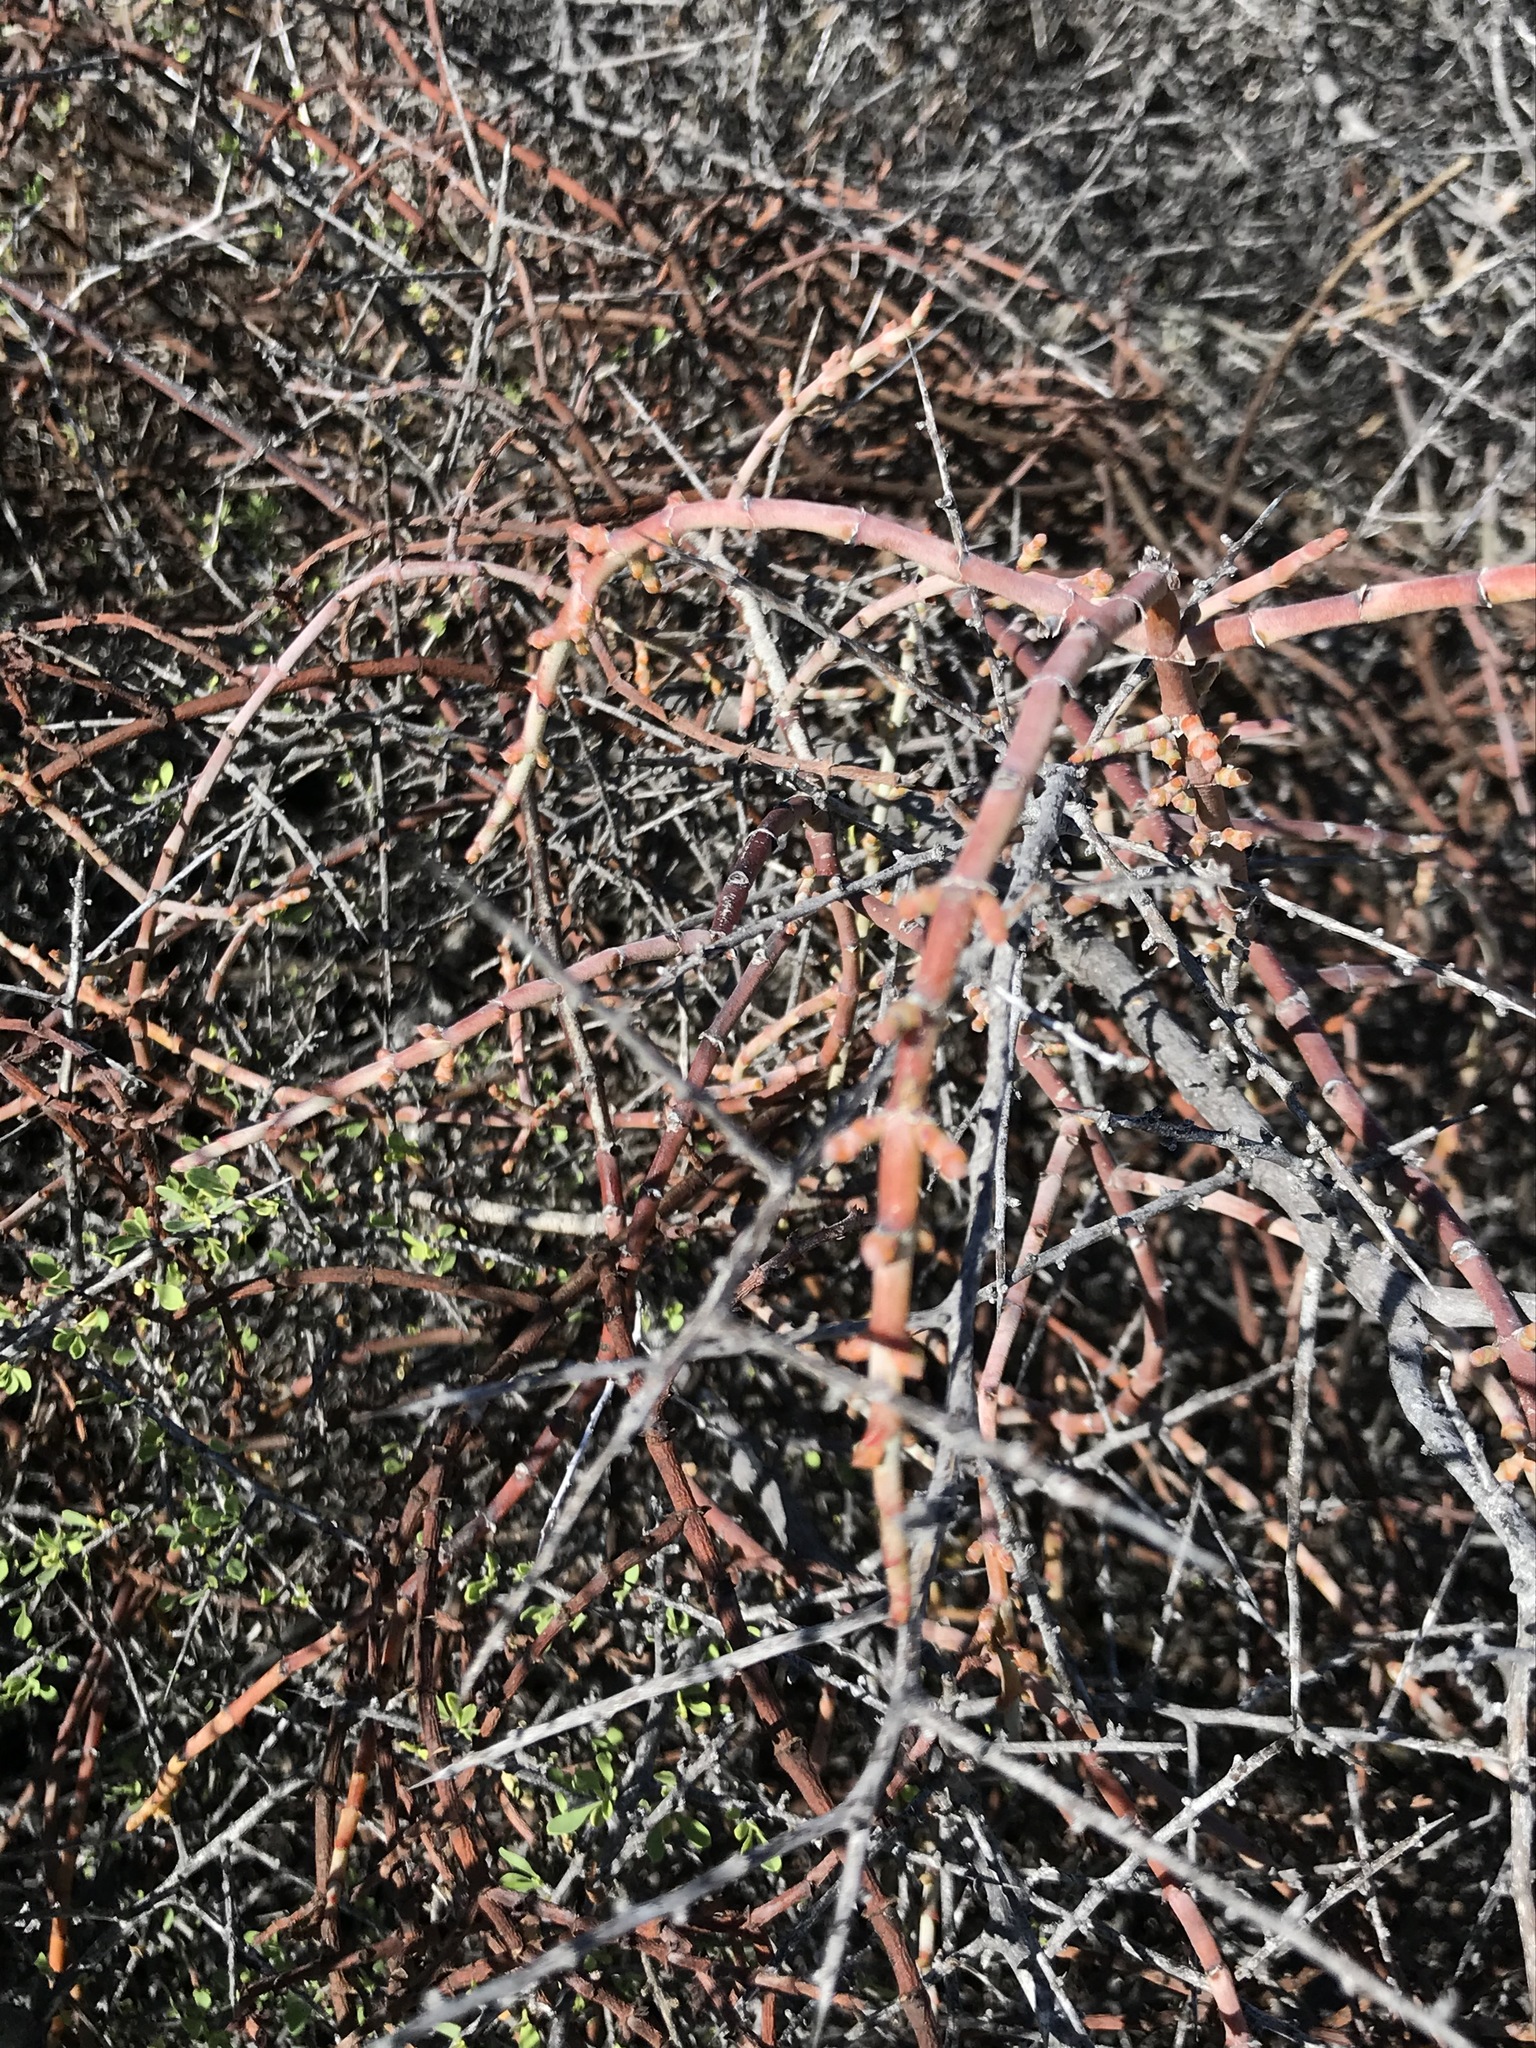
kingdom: Plantae
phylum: Tracheophyta
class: Magnoliopsida
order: Santalales
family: Viscaceae
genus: Phoradendron
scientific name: Phoradendron californicum
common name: Acacia mistletoe
